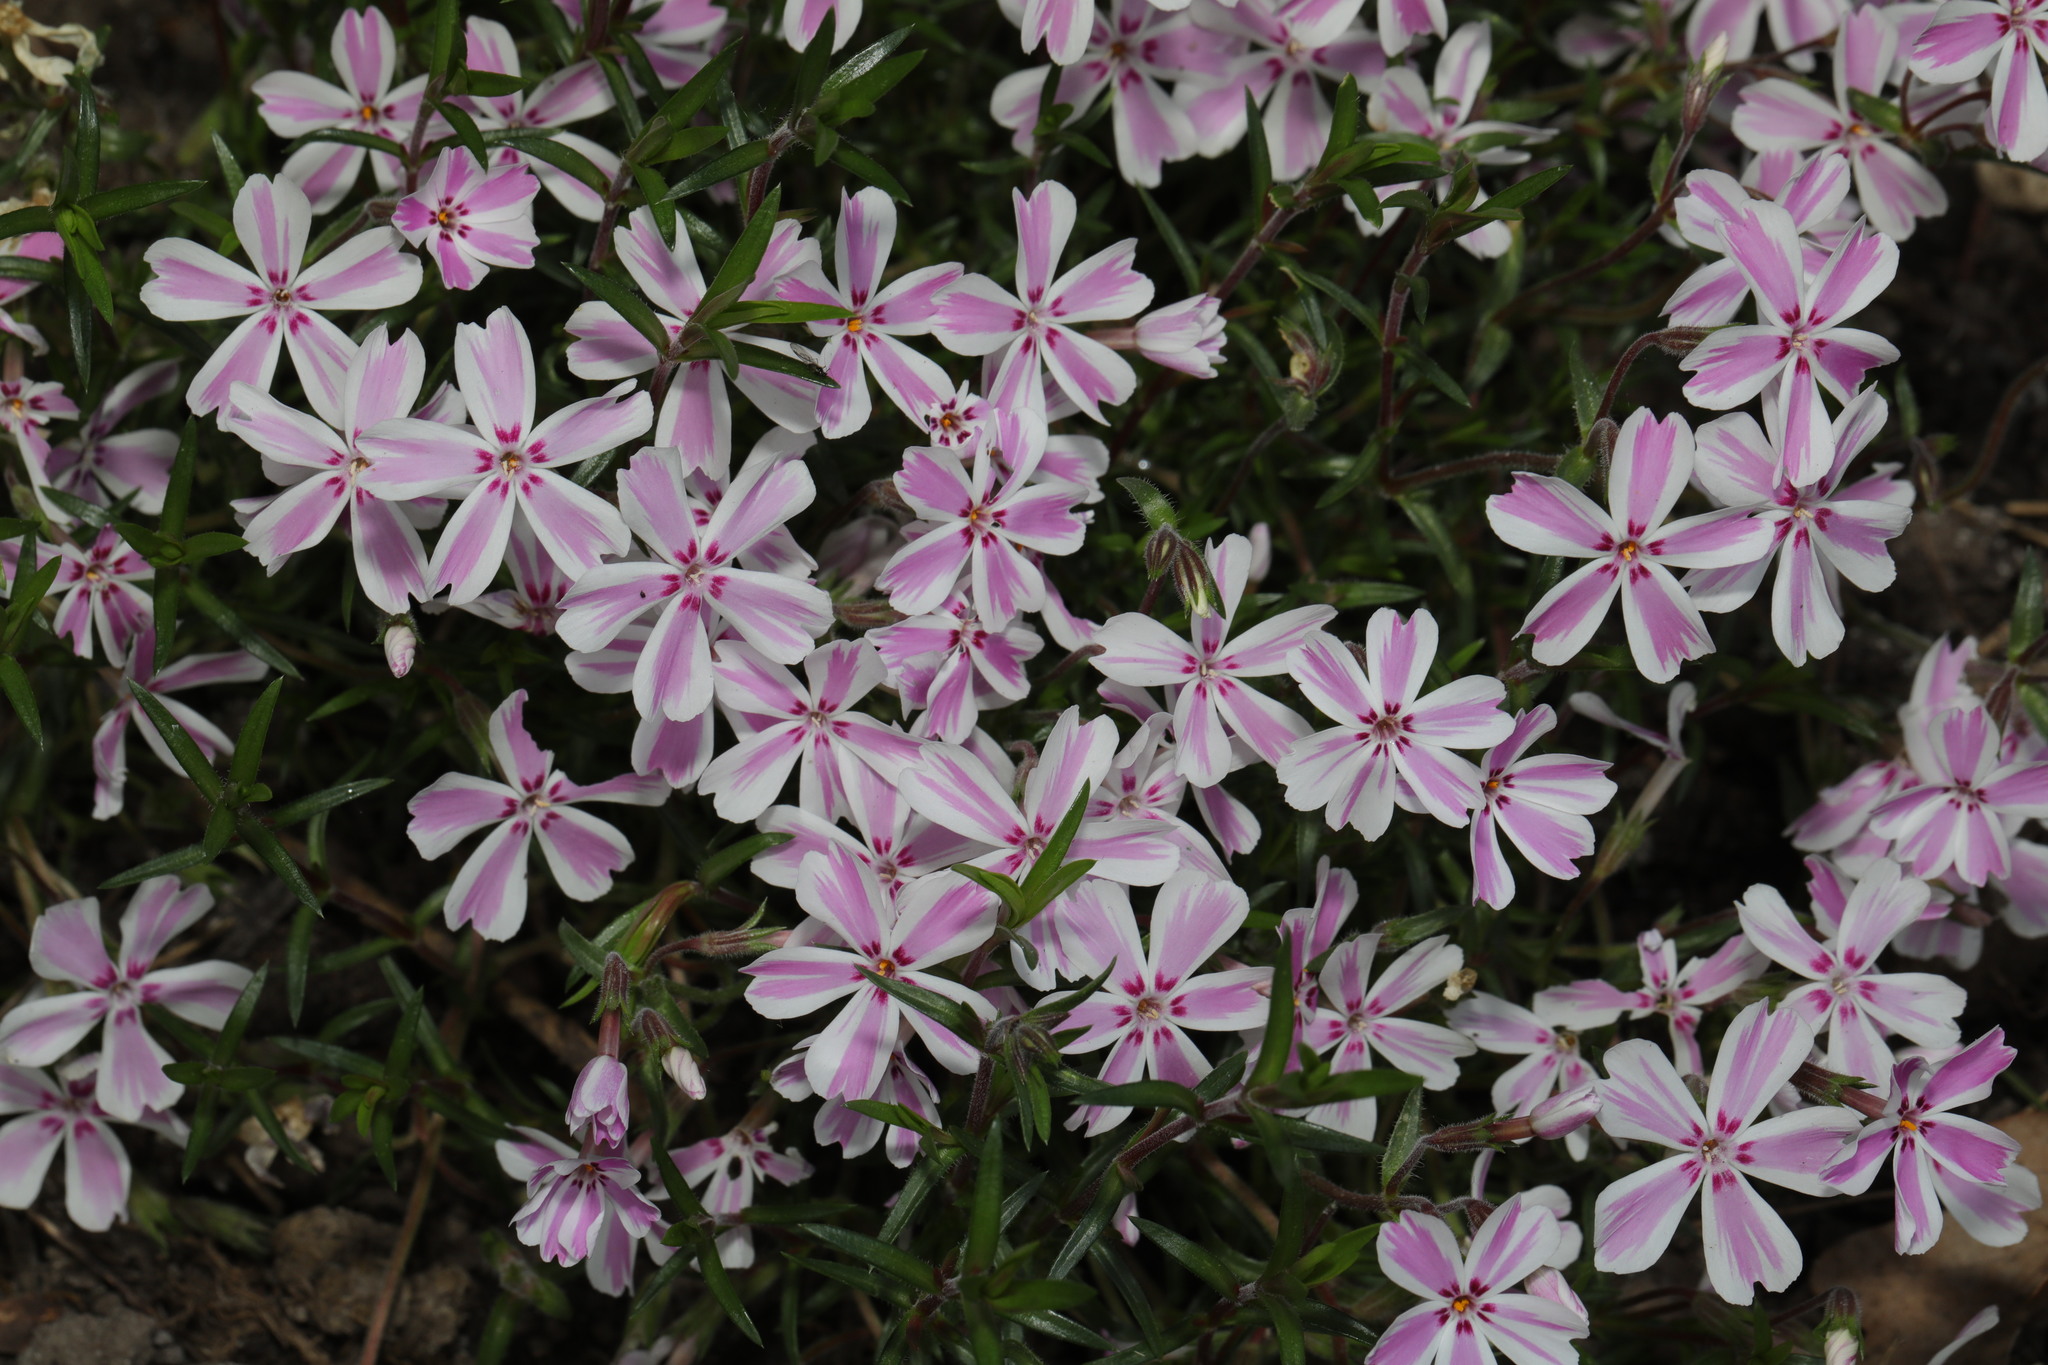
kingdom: Plantae
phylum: Tracheophyta
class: Magnoliopsida
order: Ericales
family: Polemoniaceae
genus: Phlox
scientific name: Phlox subulata
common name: Moss phlox
